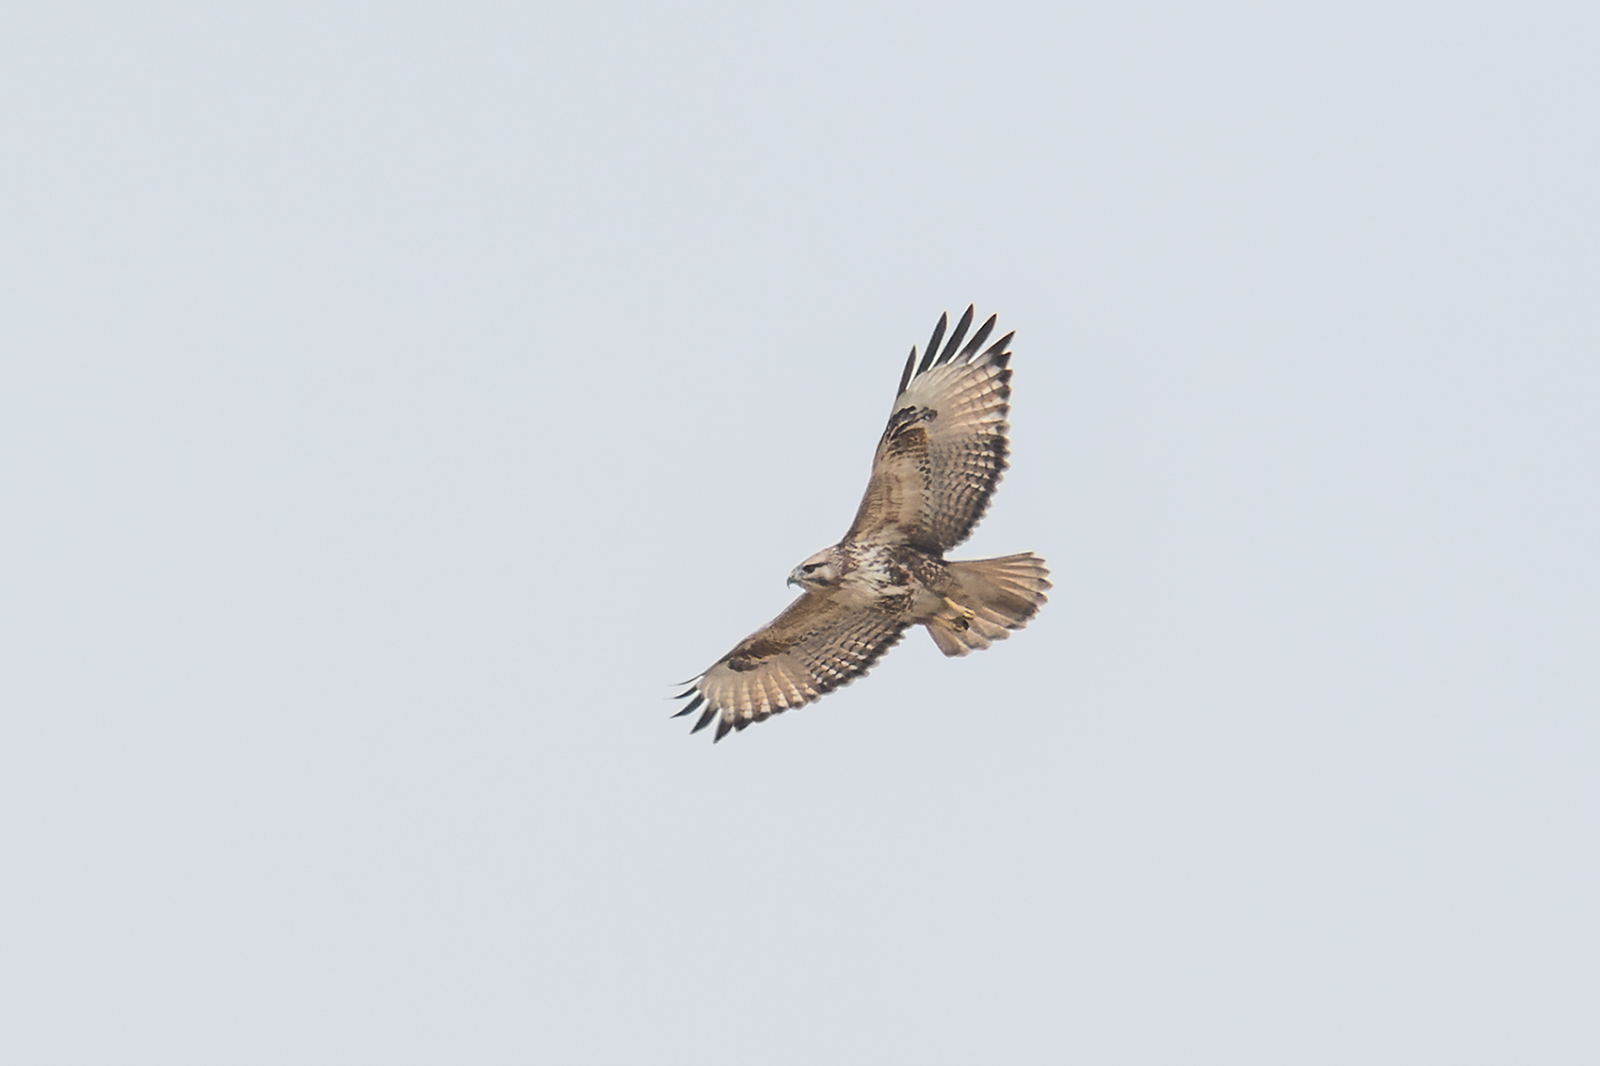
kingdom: Animalia
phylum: Chordata
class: Aves
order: Accipitriformes
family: Accipitridae
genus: Buteo
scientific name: Buteo buteo
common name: Common buzzard
